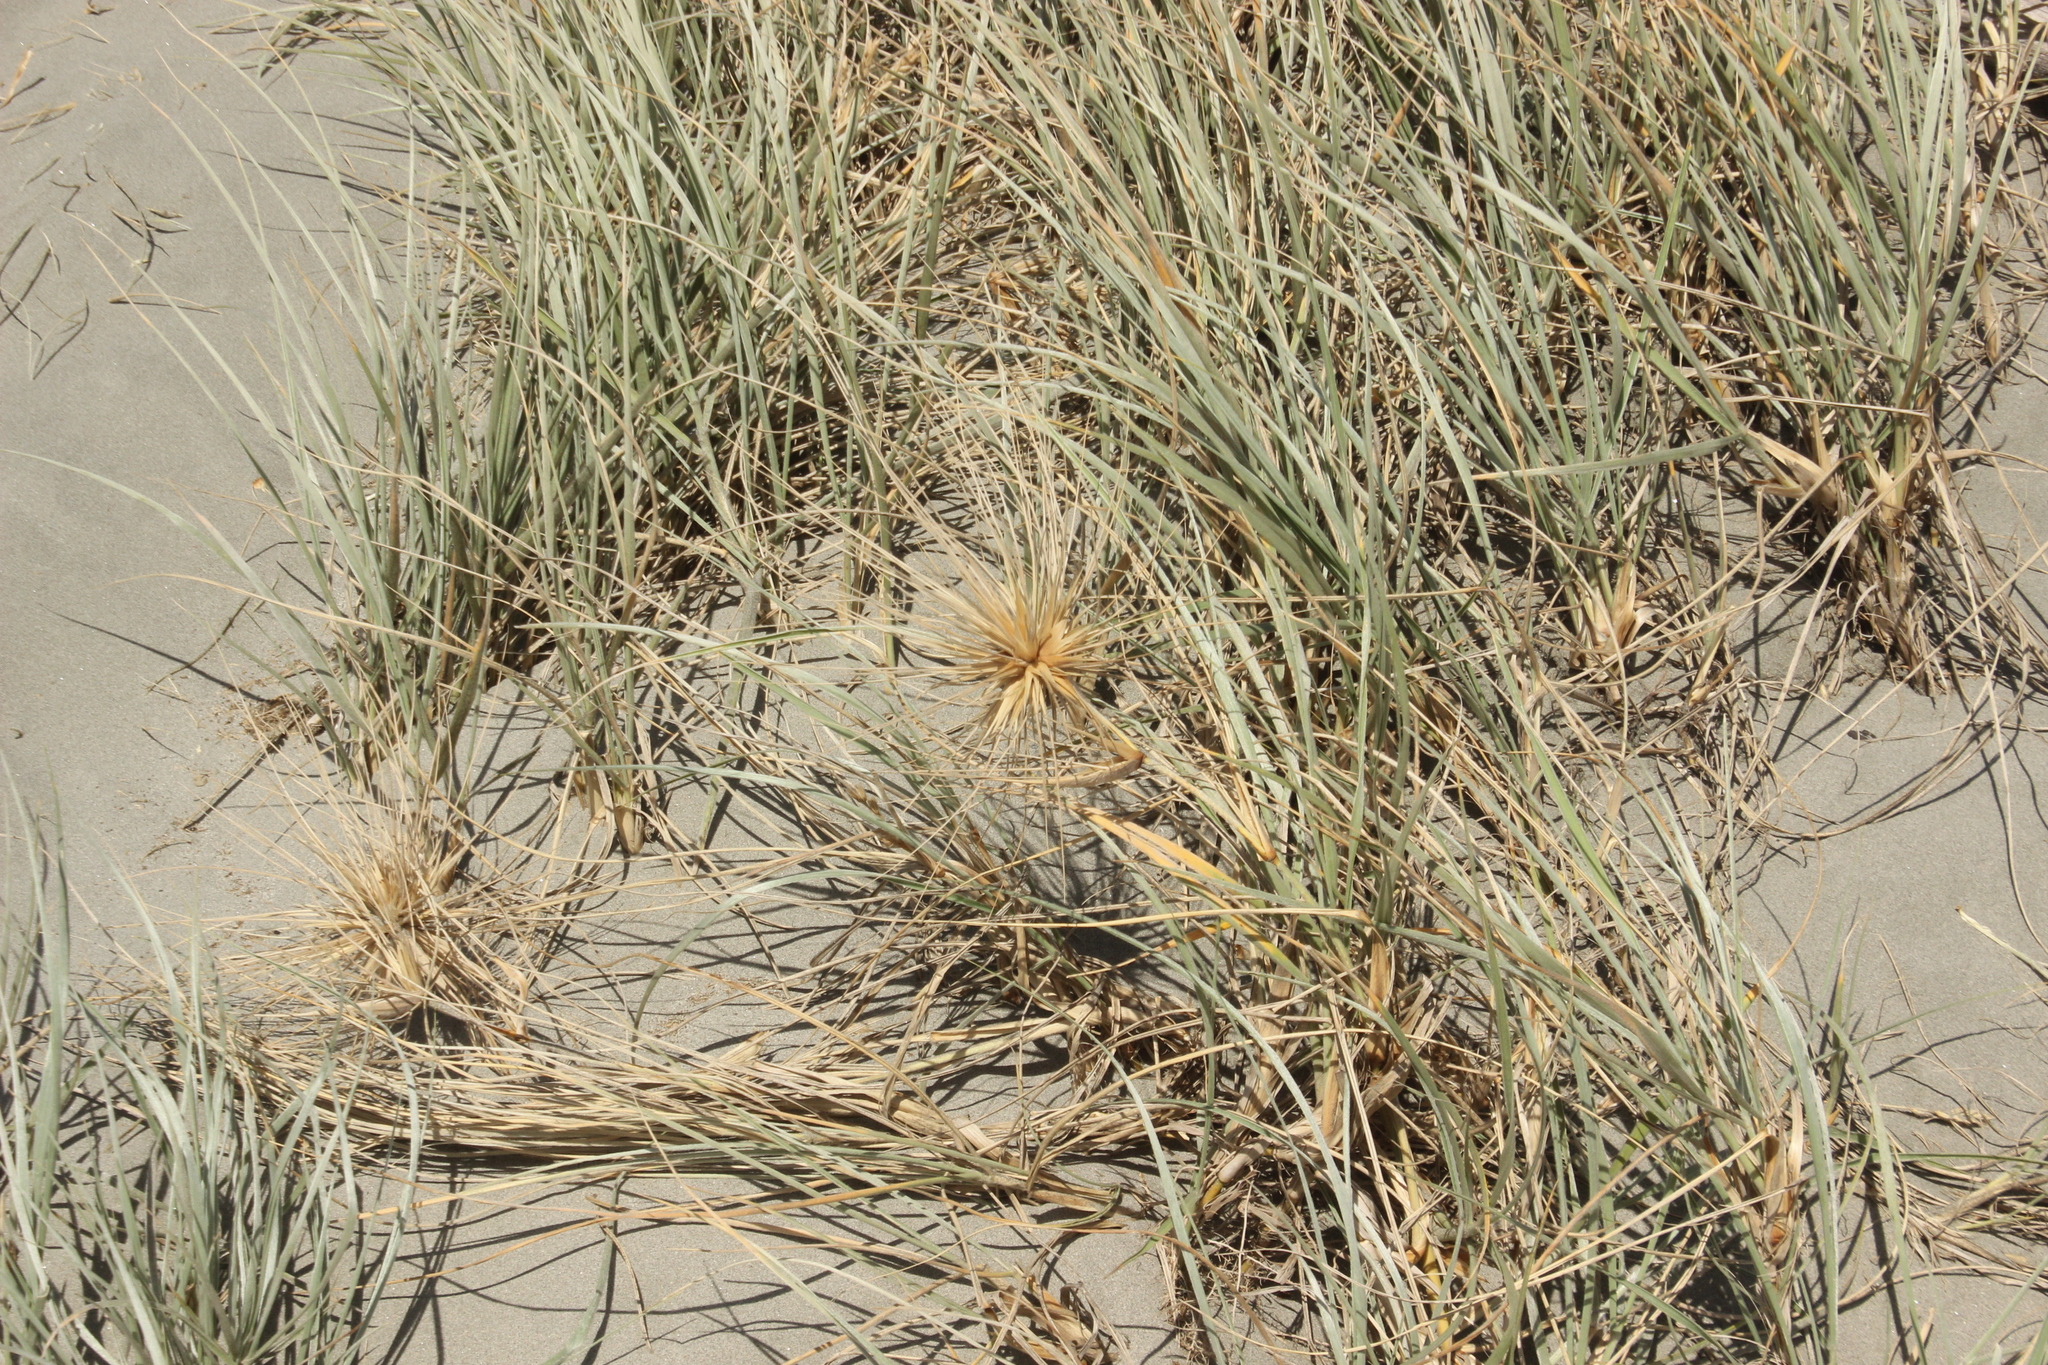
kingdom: Plantae
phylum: Tracheophyta
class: Liliopsida
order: Poales
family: Poaceae
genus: Spinifex
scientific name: Spinifex sericeus
